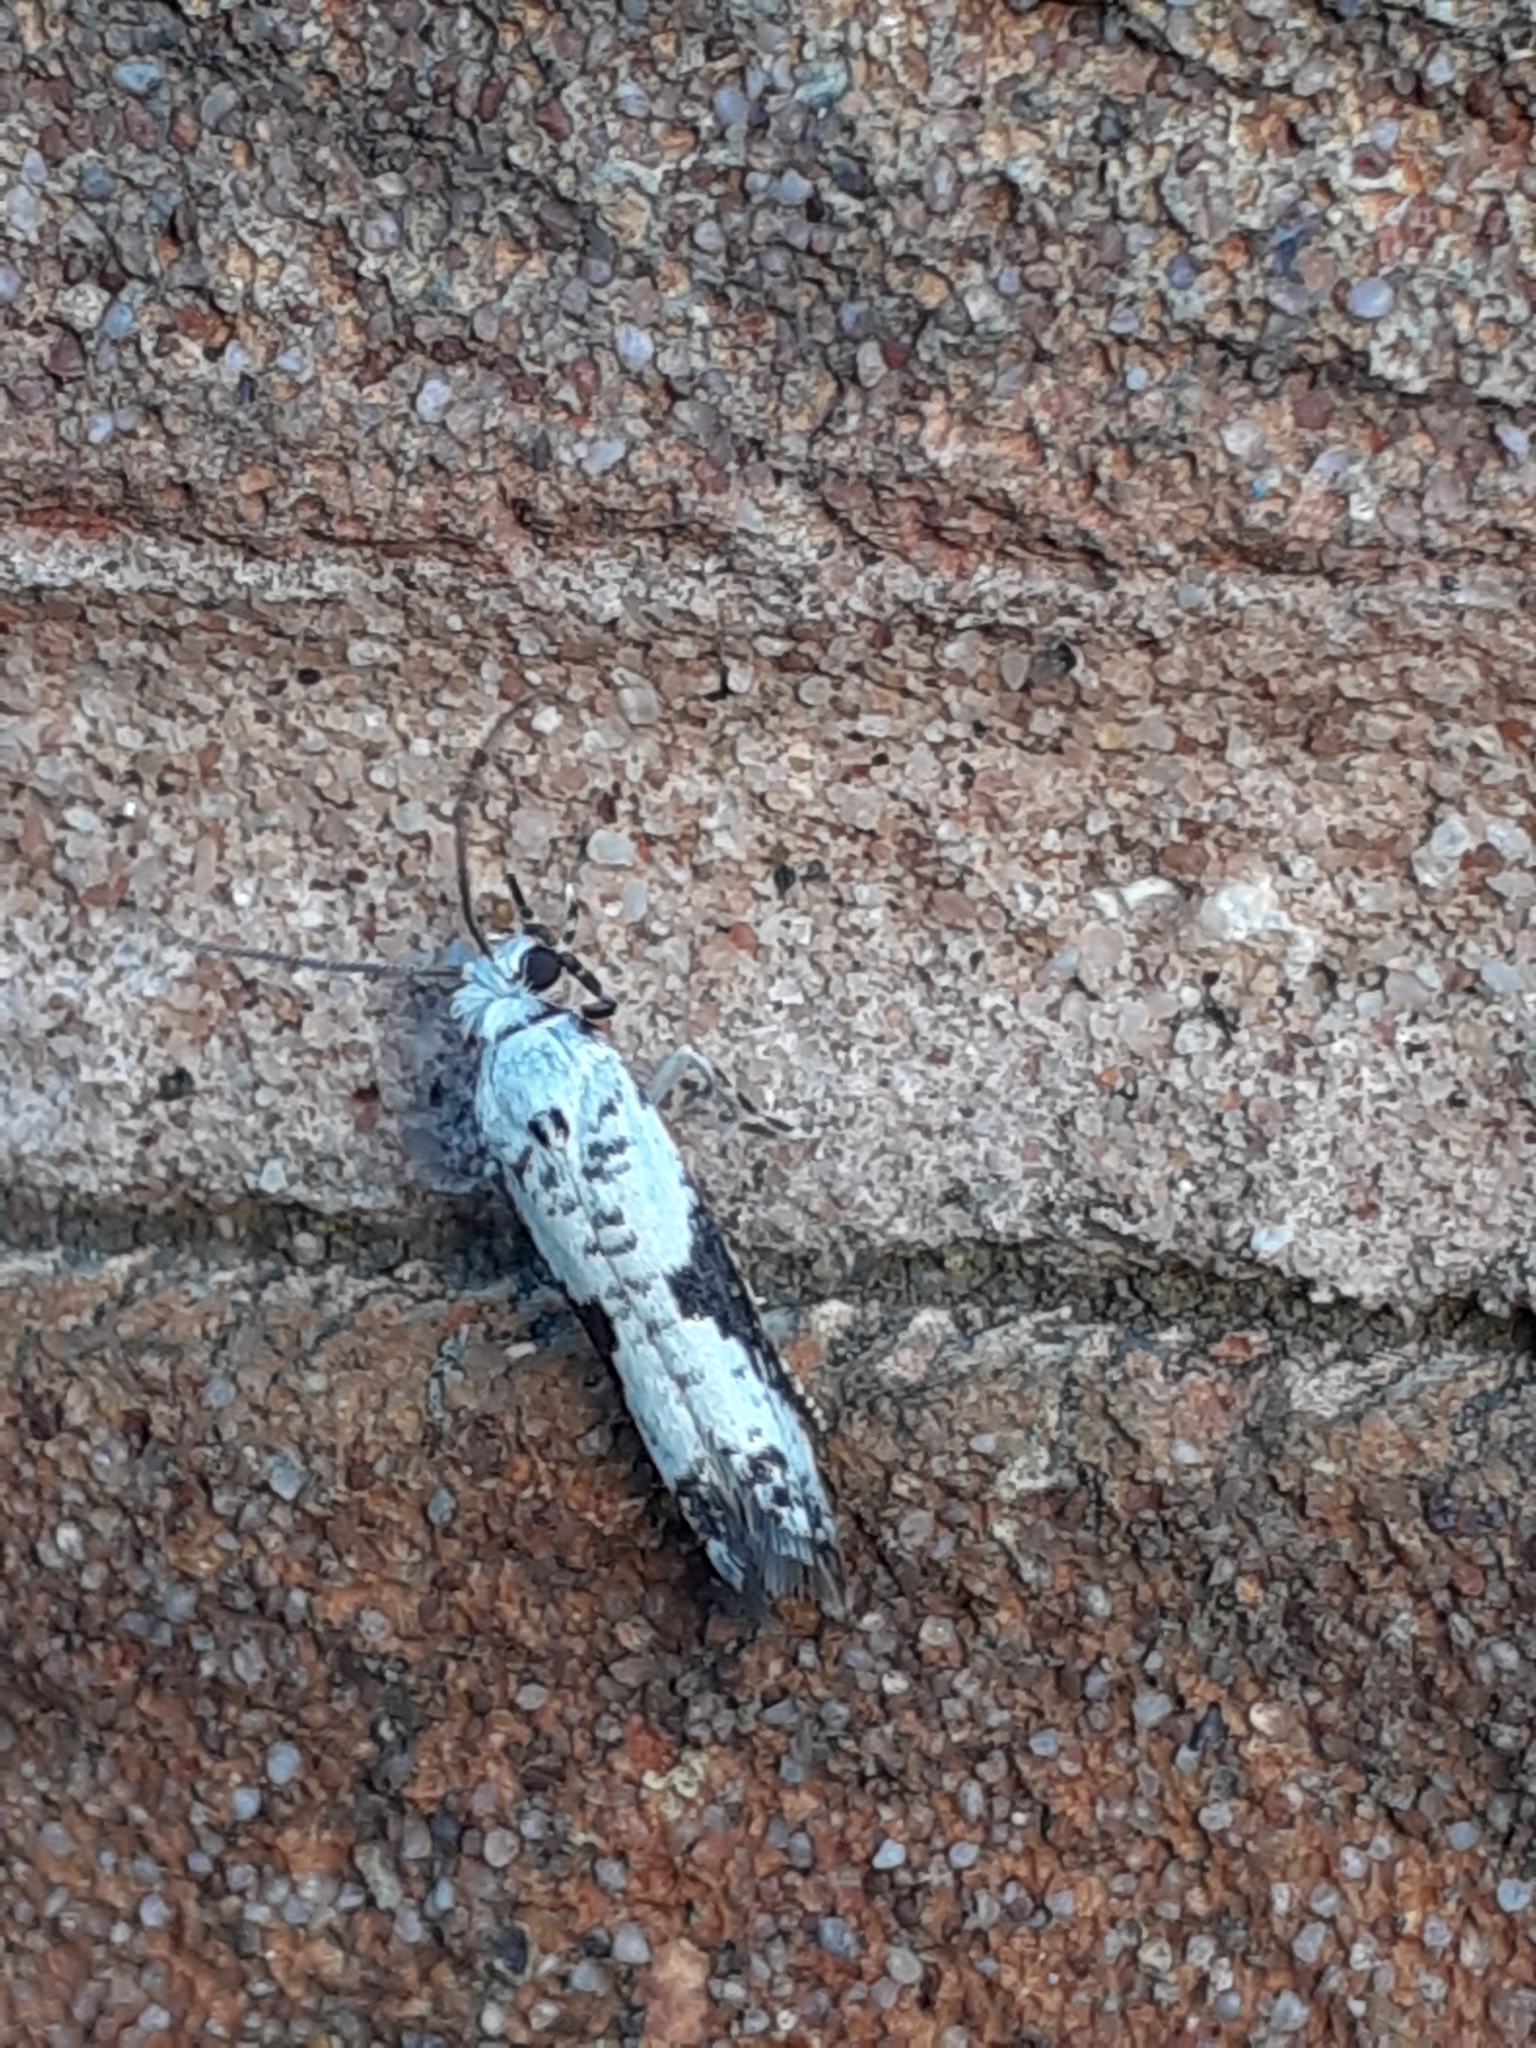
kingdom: Animalia
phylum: Arthropoda
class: Insecta
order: Lepidoptera
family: Praydidae
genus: Prays
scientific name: Prays fraxinella
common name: Ash bud moth
